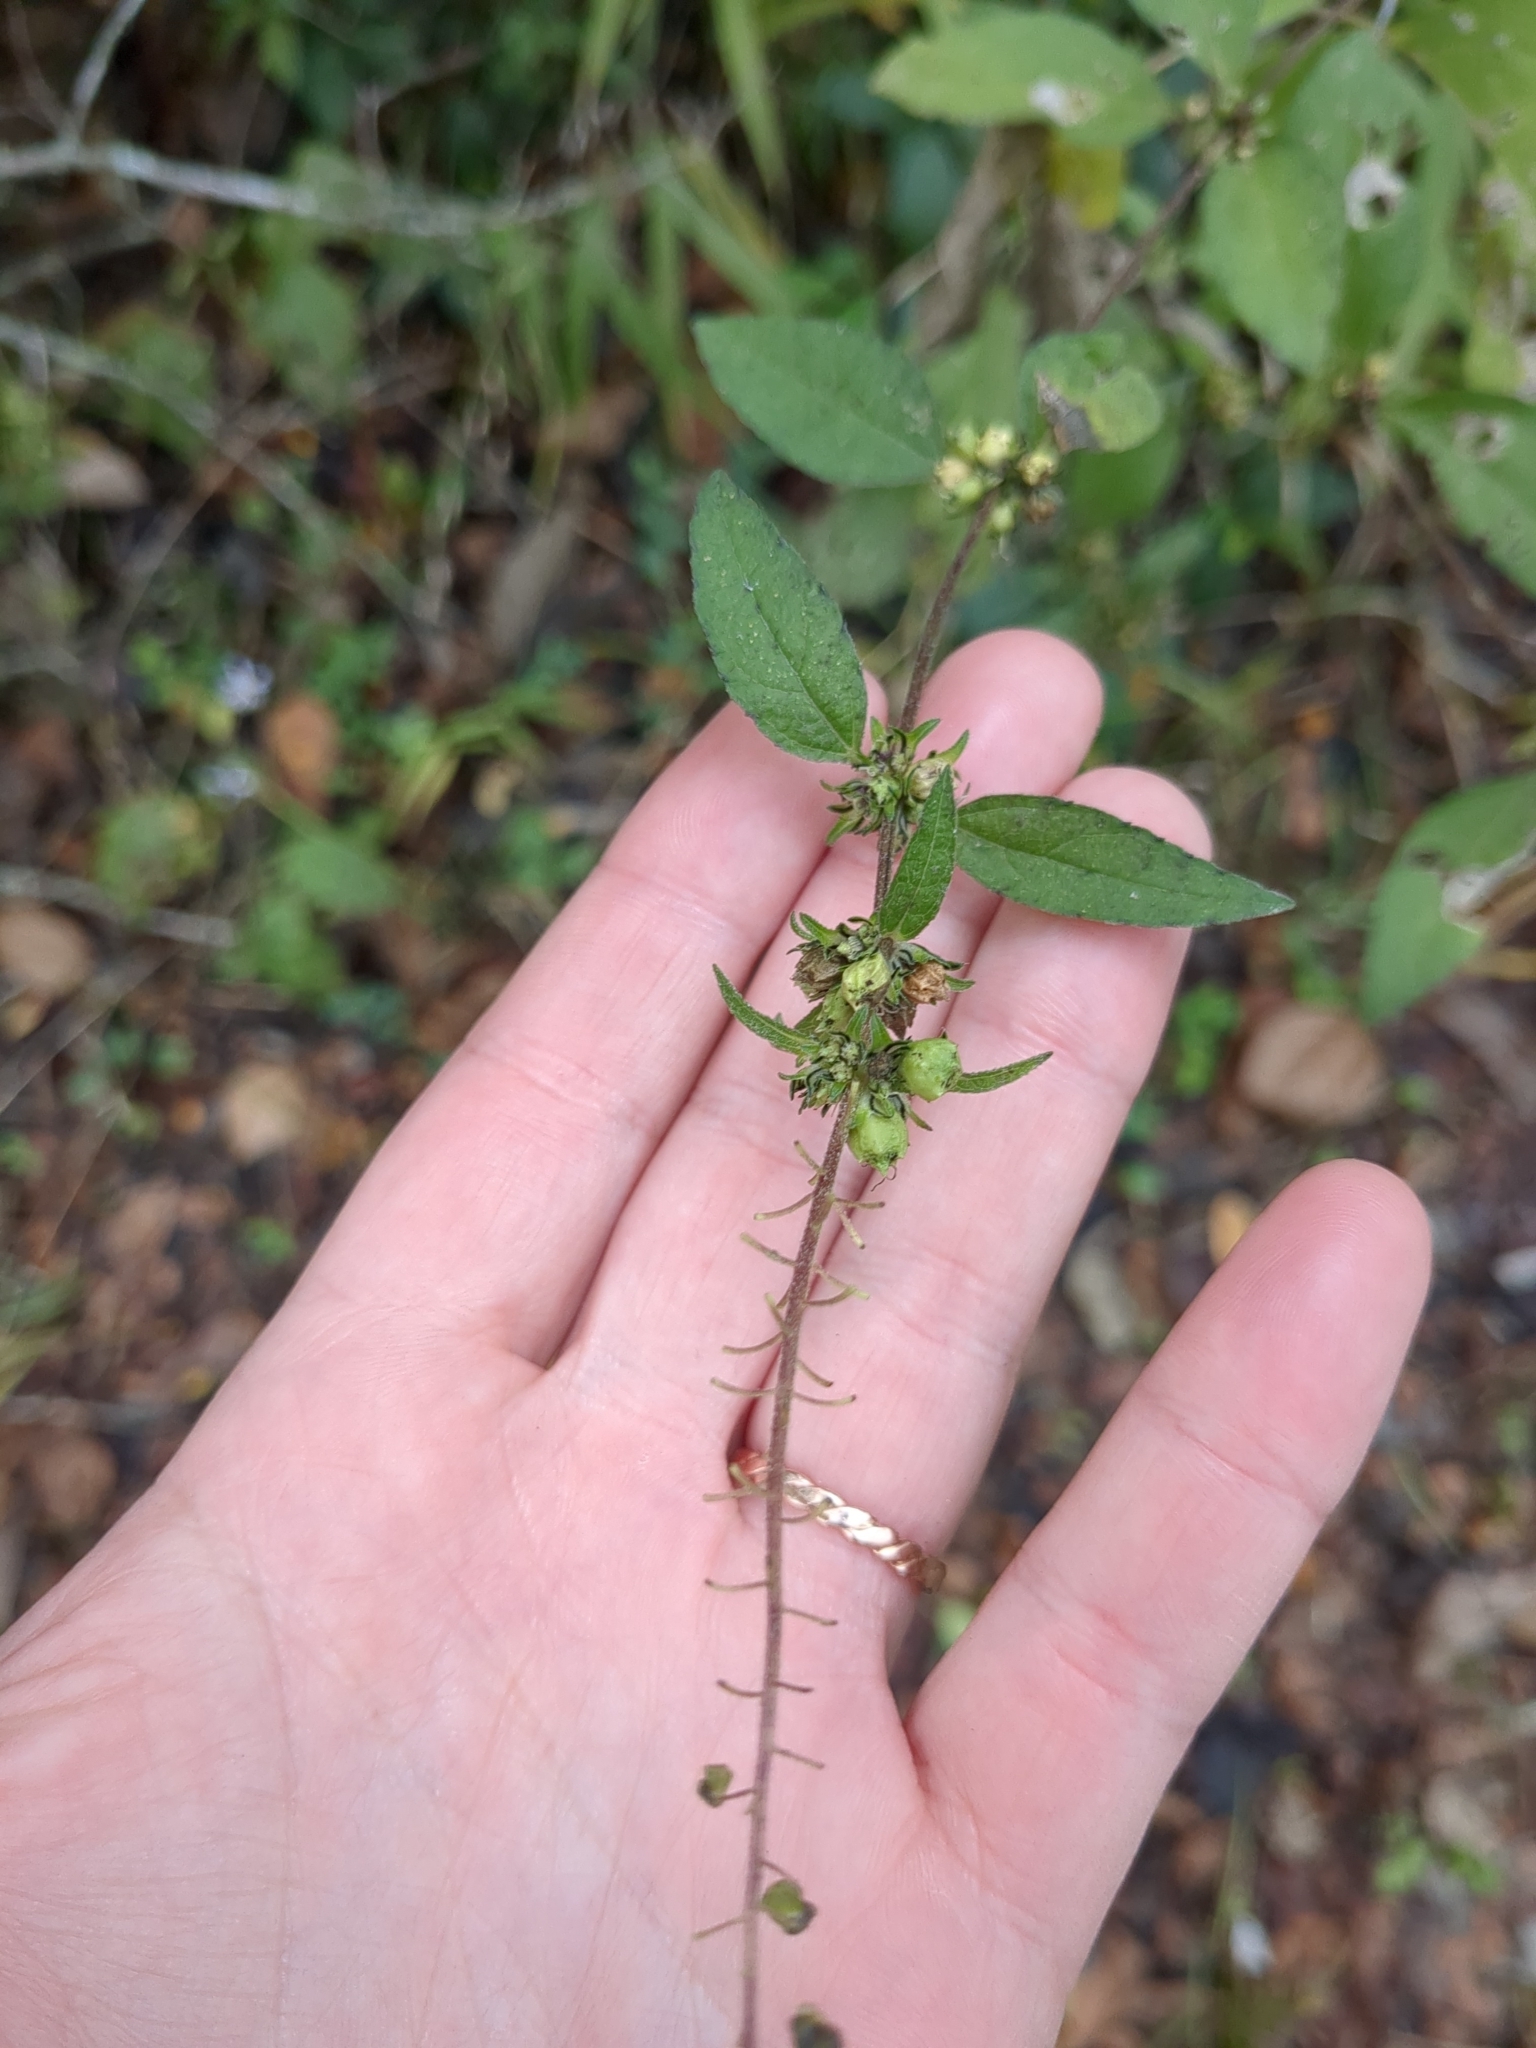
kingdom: Plantae
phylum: Tracheophyta
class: Magnoliopsida
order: Asterales
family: Asteraceae
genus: Ambrosia
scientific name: Ambrosia trifida
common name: Giant ragweed
